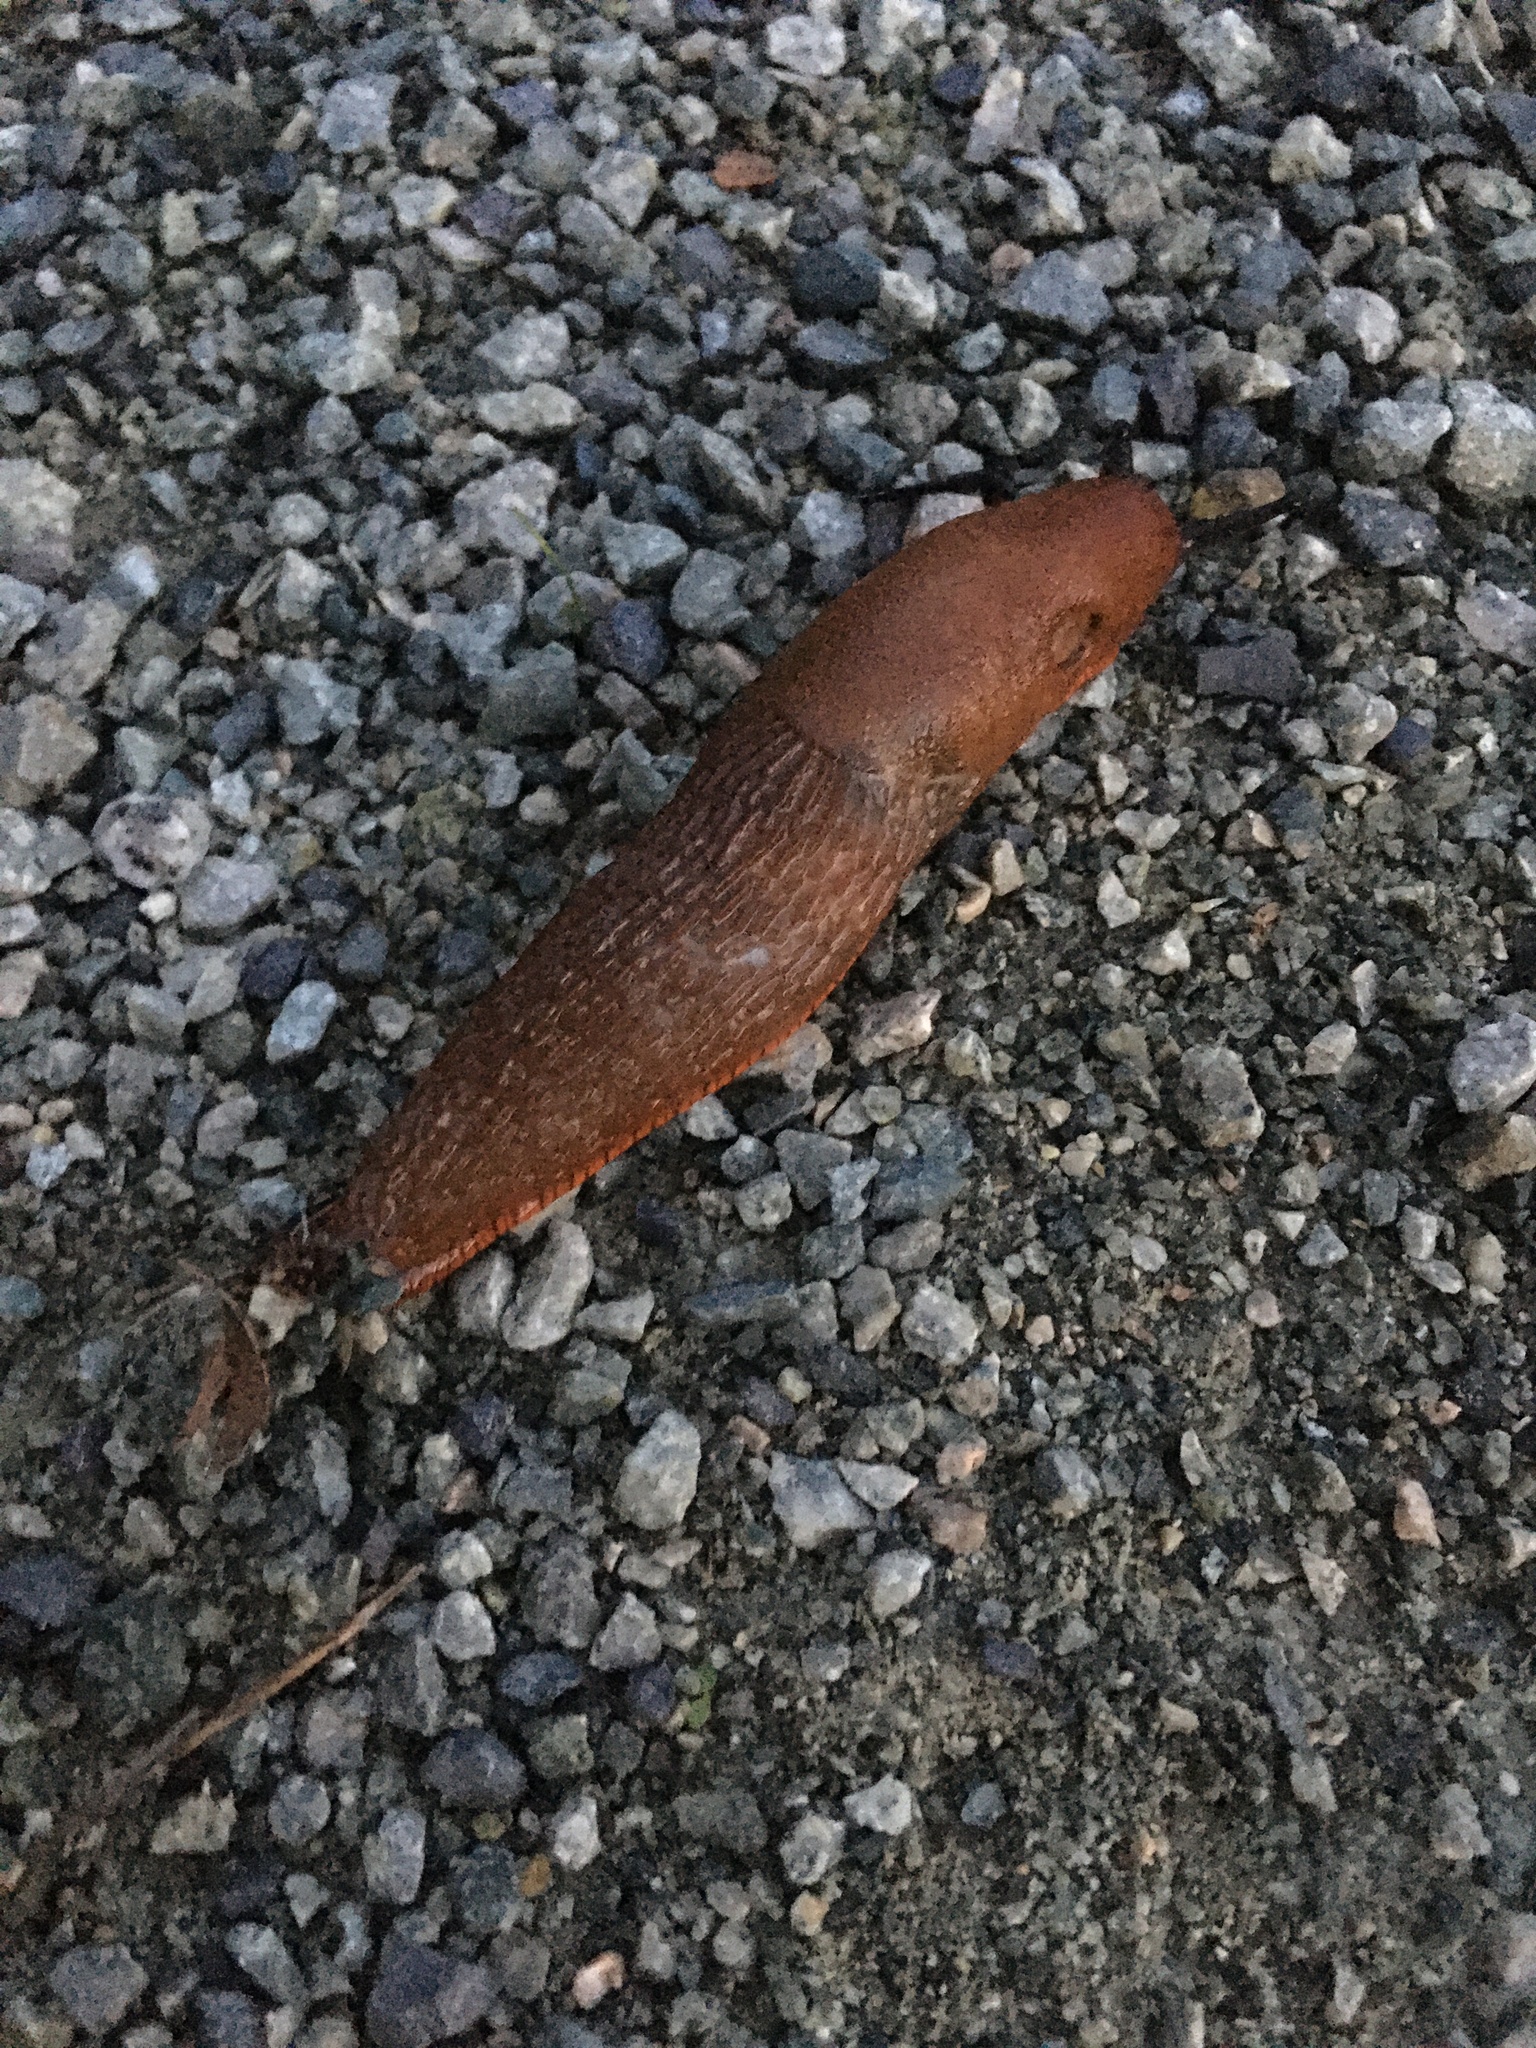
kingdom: Animalia
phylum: Mollusca
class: Gastropoda
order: Stylommatophora
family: Arionidae
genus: Arion
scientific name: Arion
